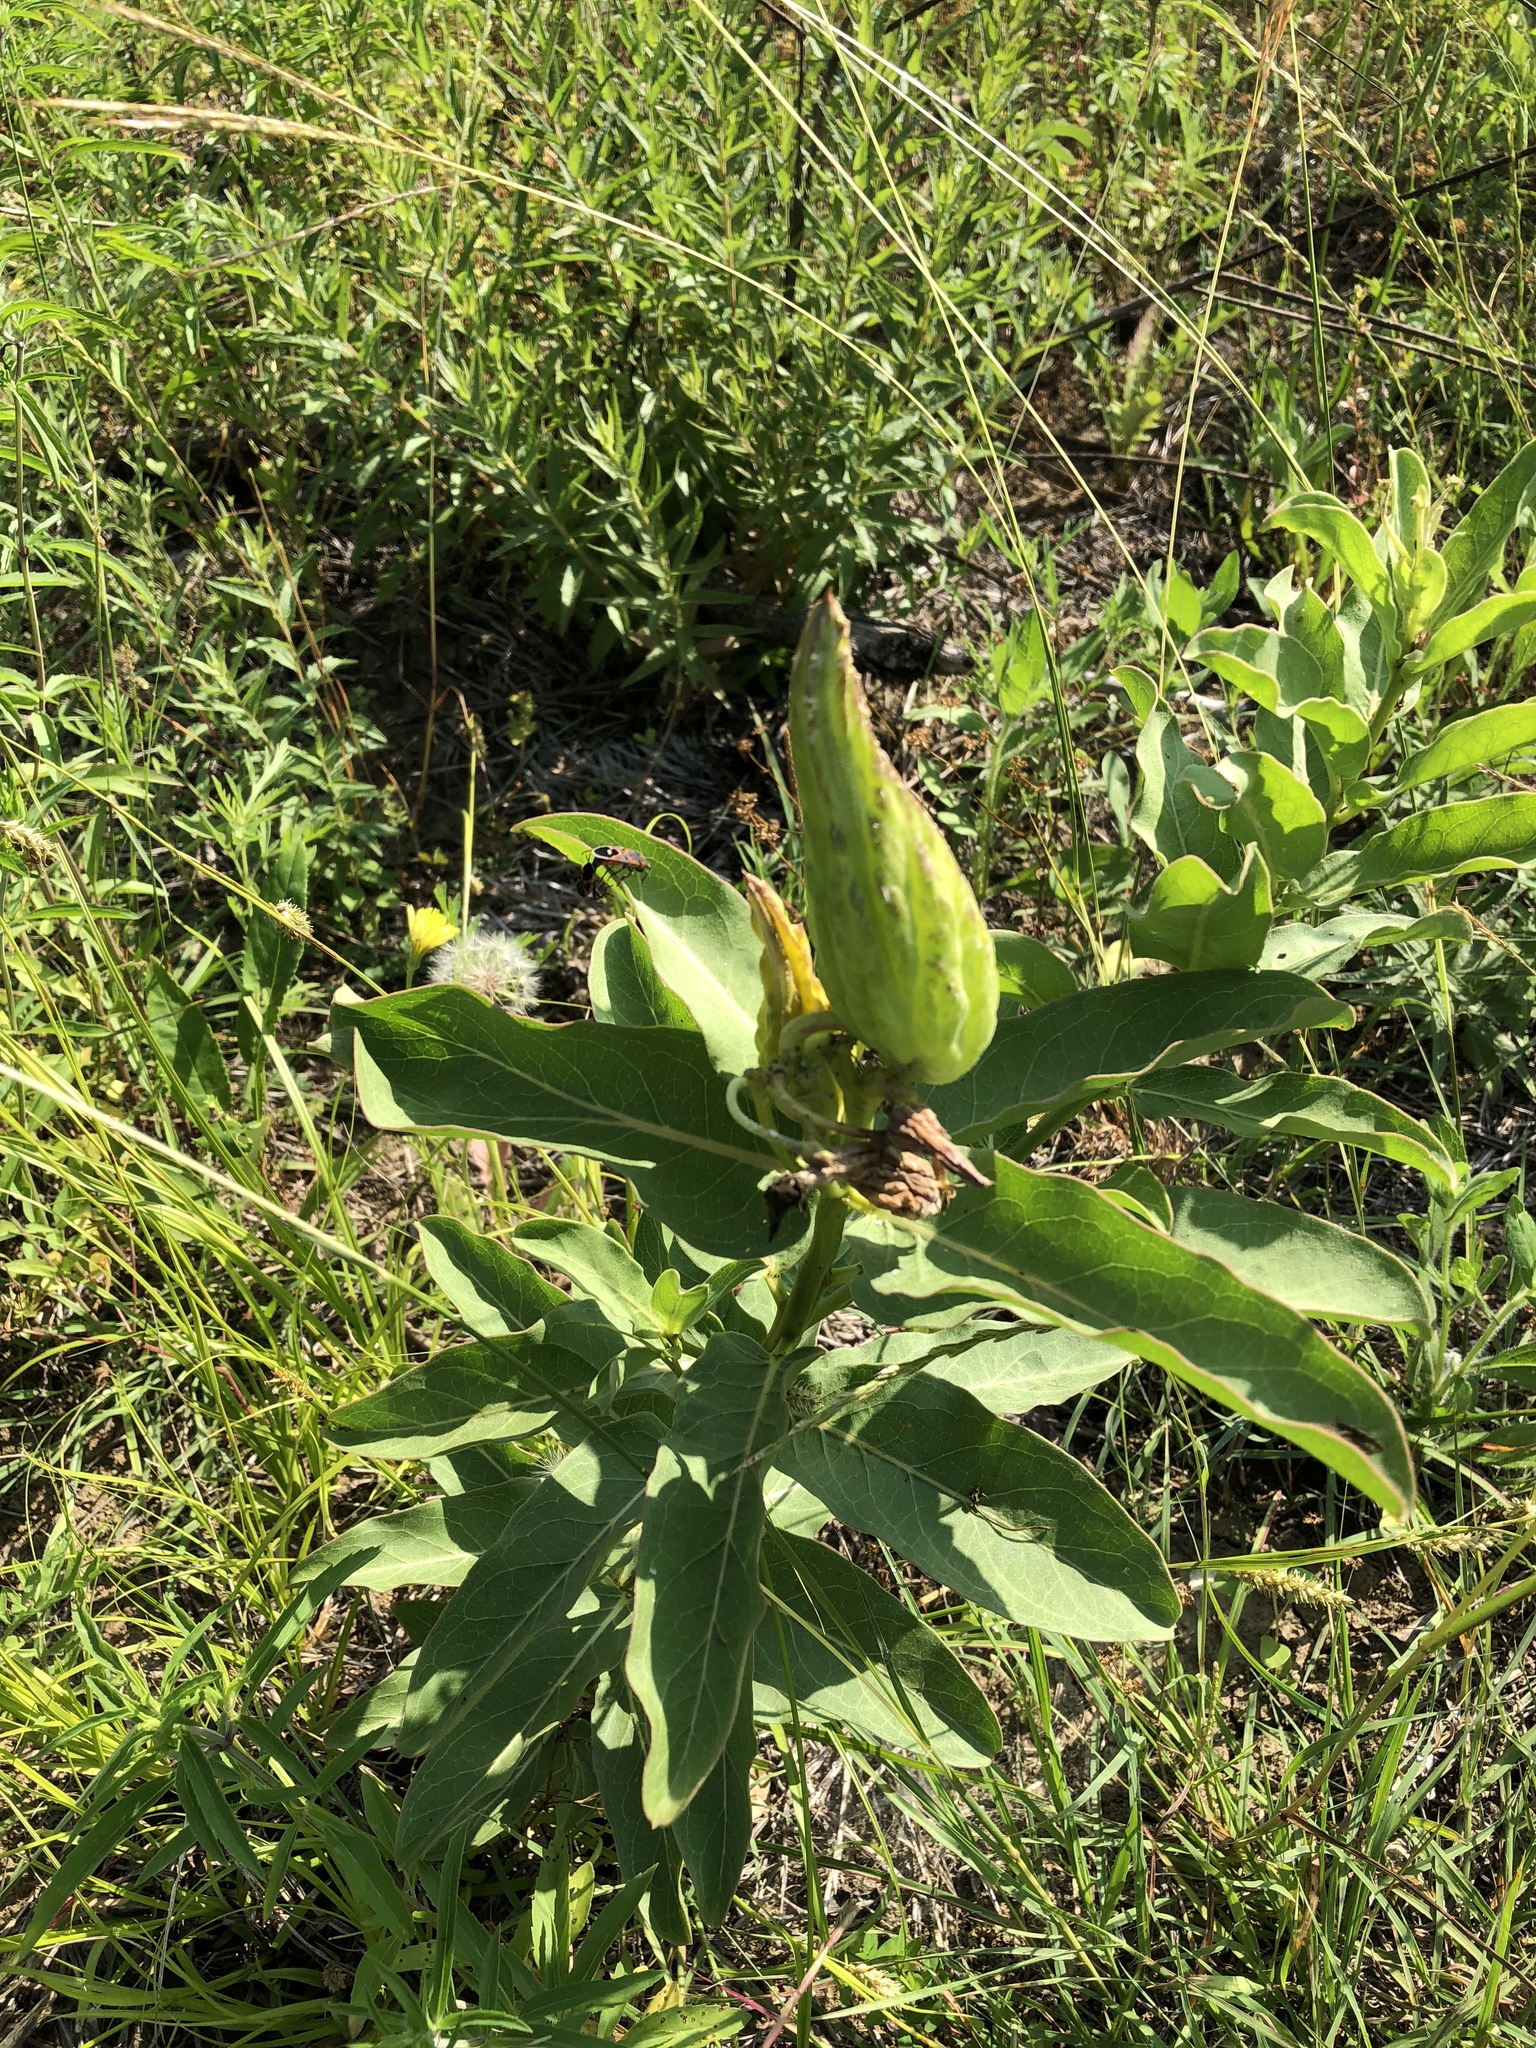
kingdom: Plantae
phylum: Tracheophyta
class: Magnoliopsida
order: Gentianales
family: Apocynaceae
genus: Asclepias
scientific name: Asclepias viridis
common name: Antelope-horns
